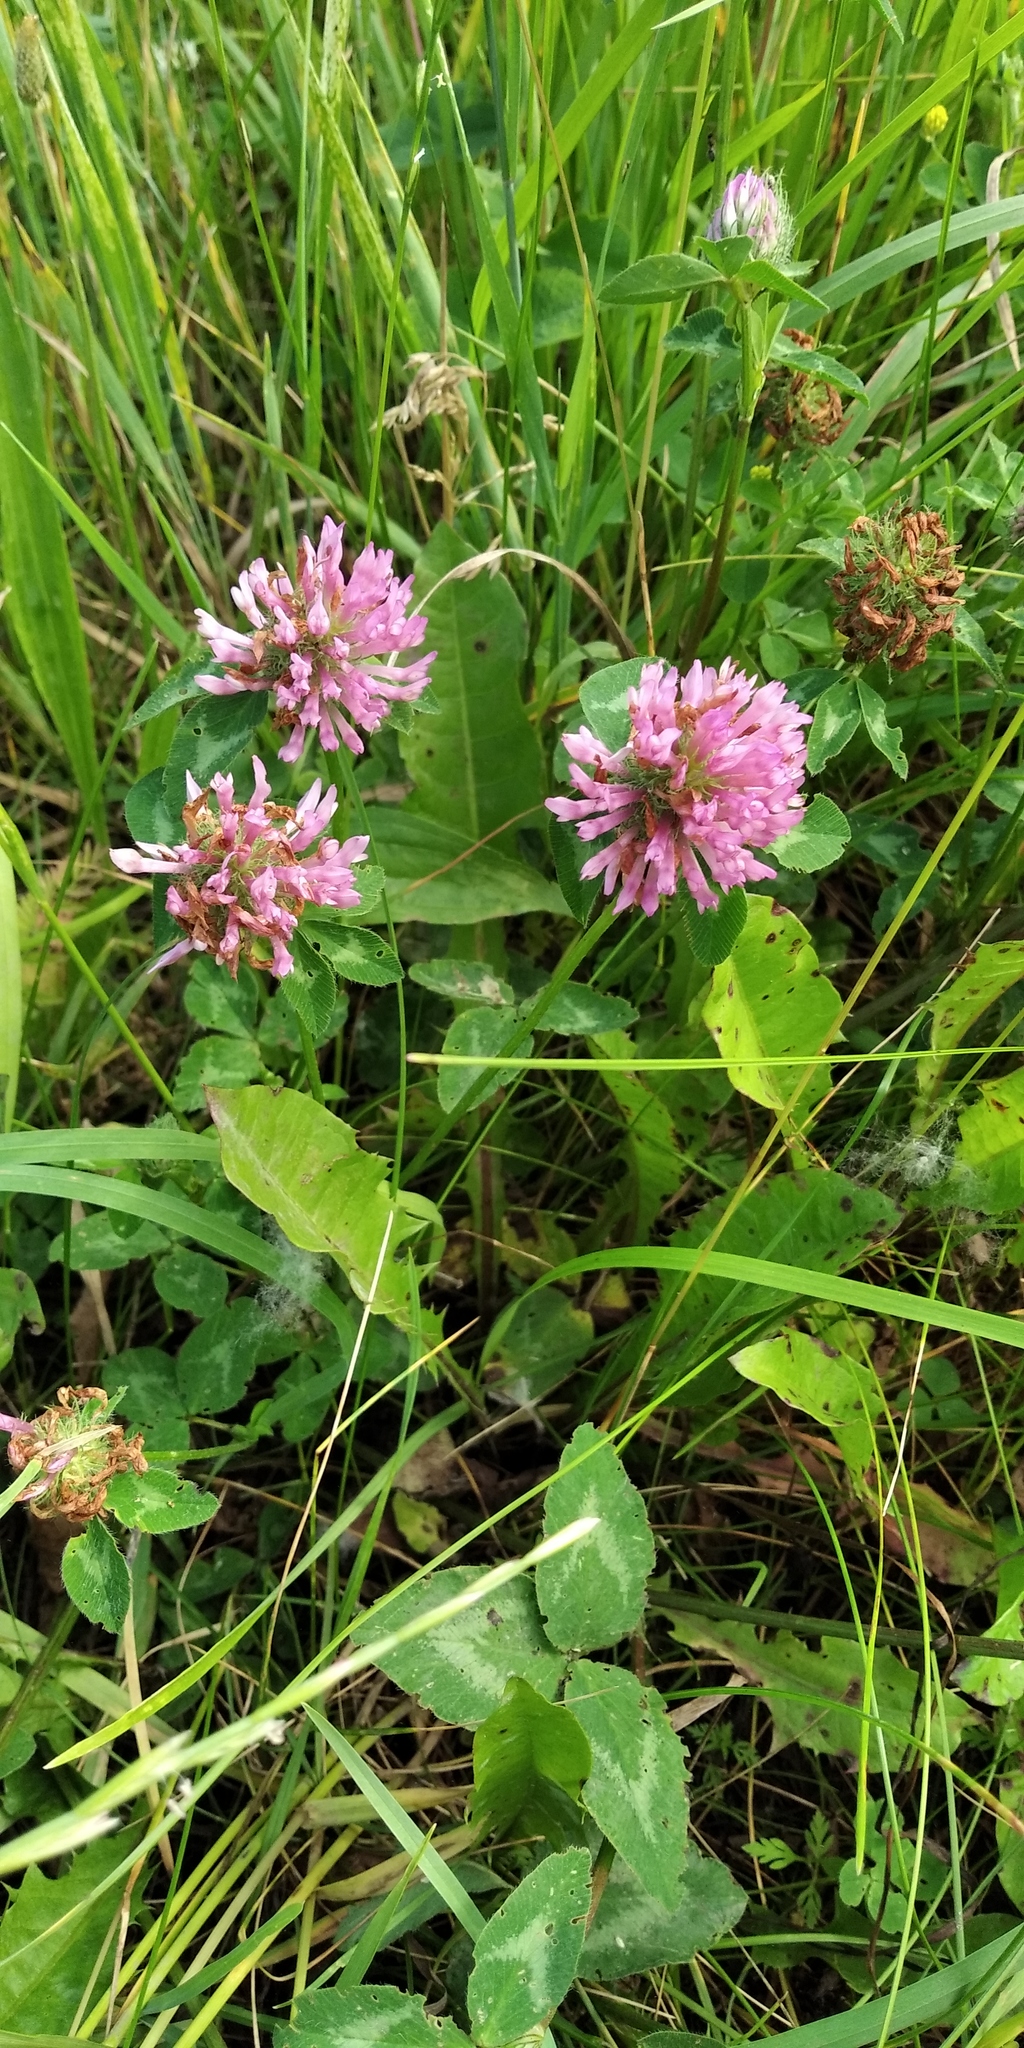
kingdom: Plantae
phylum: Tracheophyta
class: Magnoliopsida
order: Fabales
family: Fabaceae
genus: Trifolium
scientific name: Trifolium pratense
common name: Red clover
